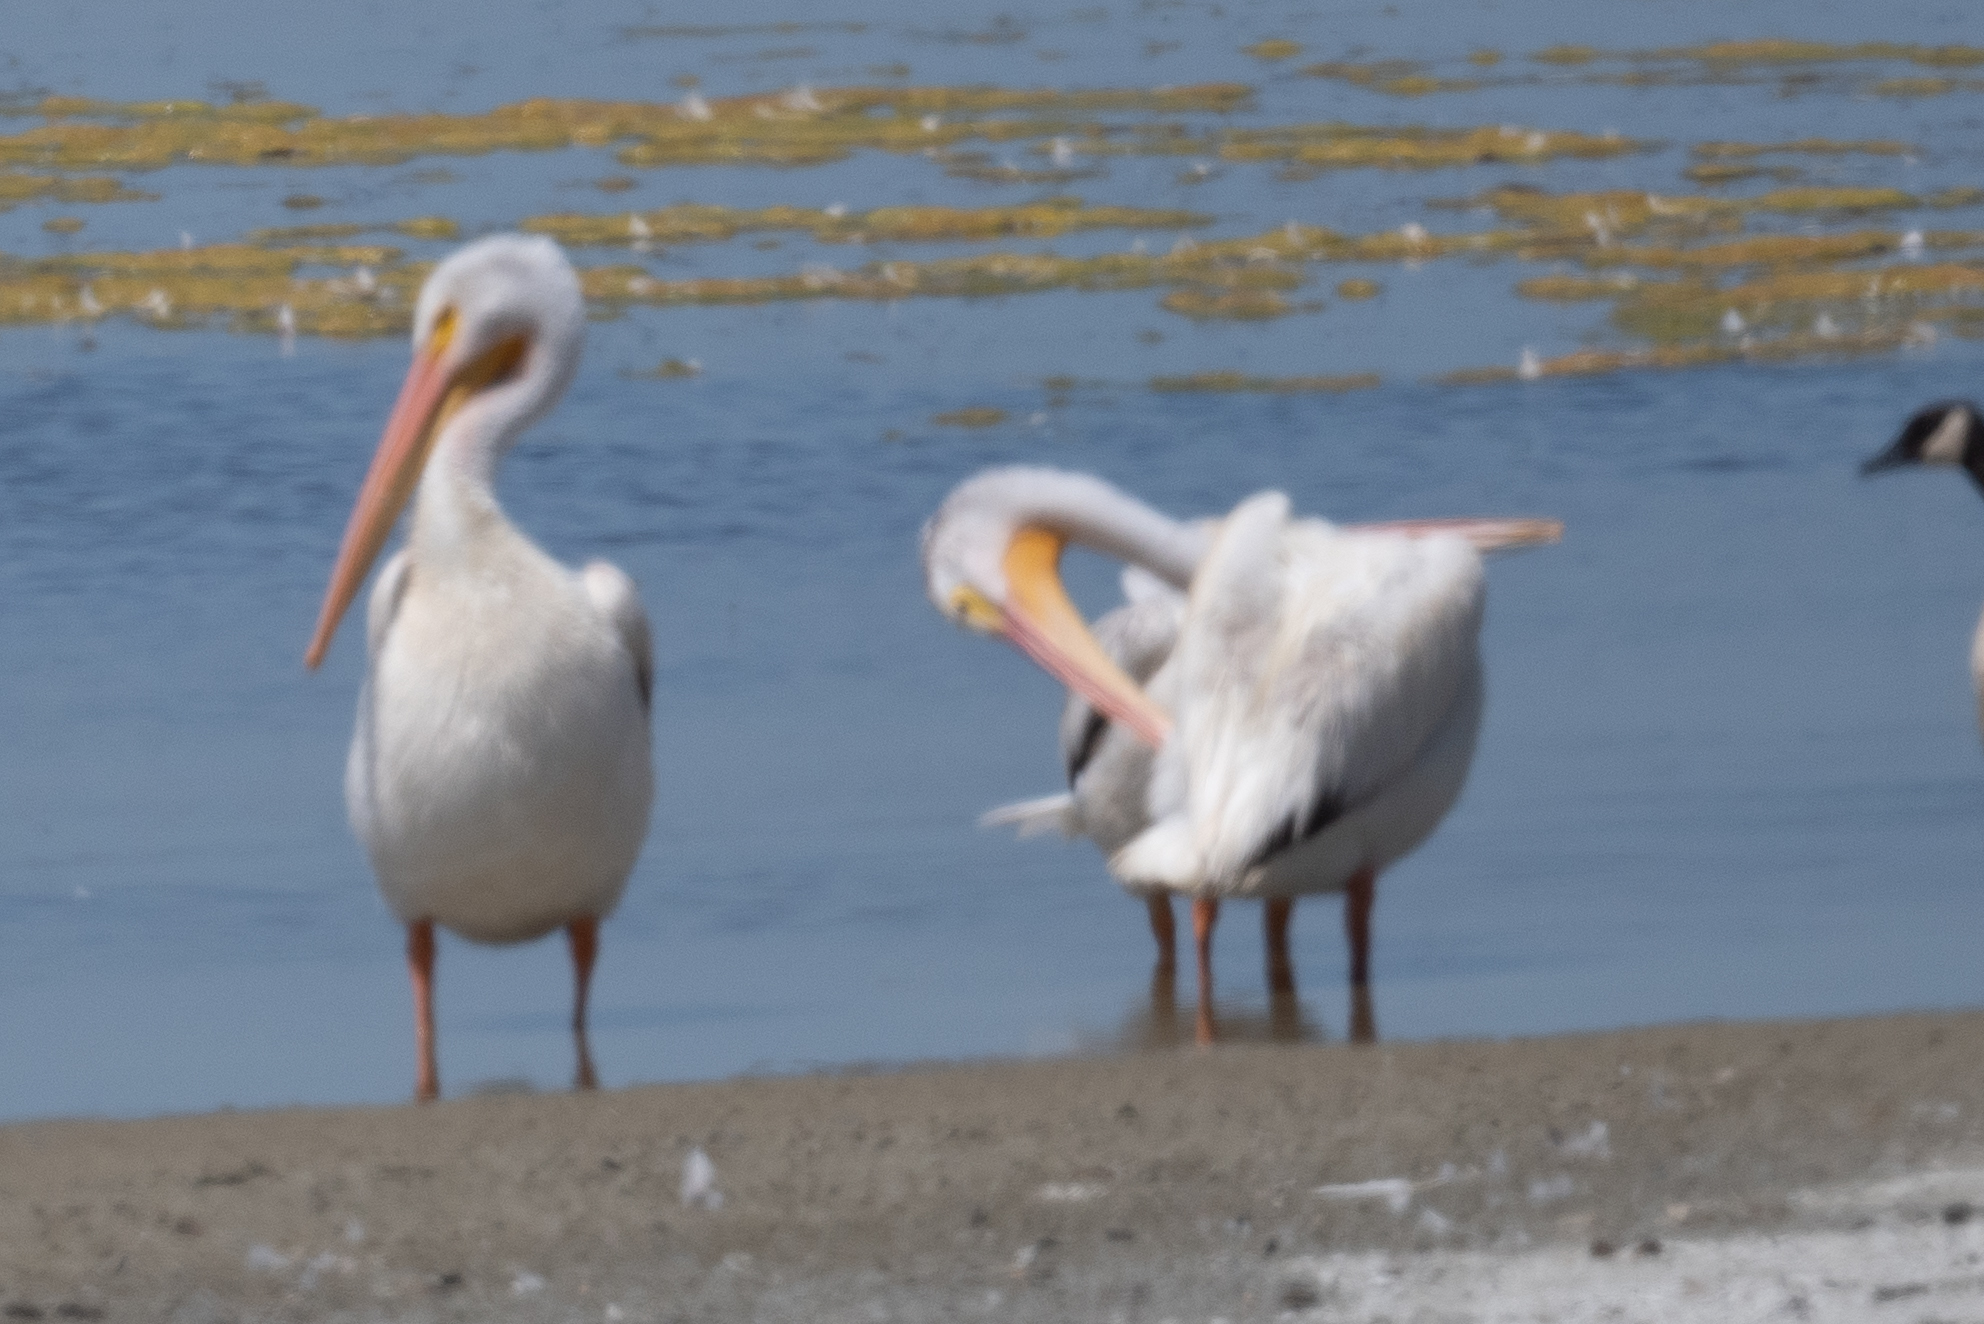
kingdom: Animalia
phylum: Chordata
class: Aves
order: Pelecaniformes
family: Pelecanidae
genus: Pelecanus
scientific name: Pelecanus erythrorhynchos
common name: American white pelican
